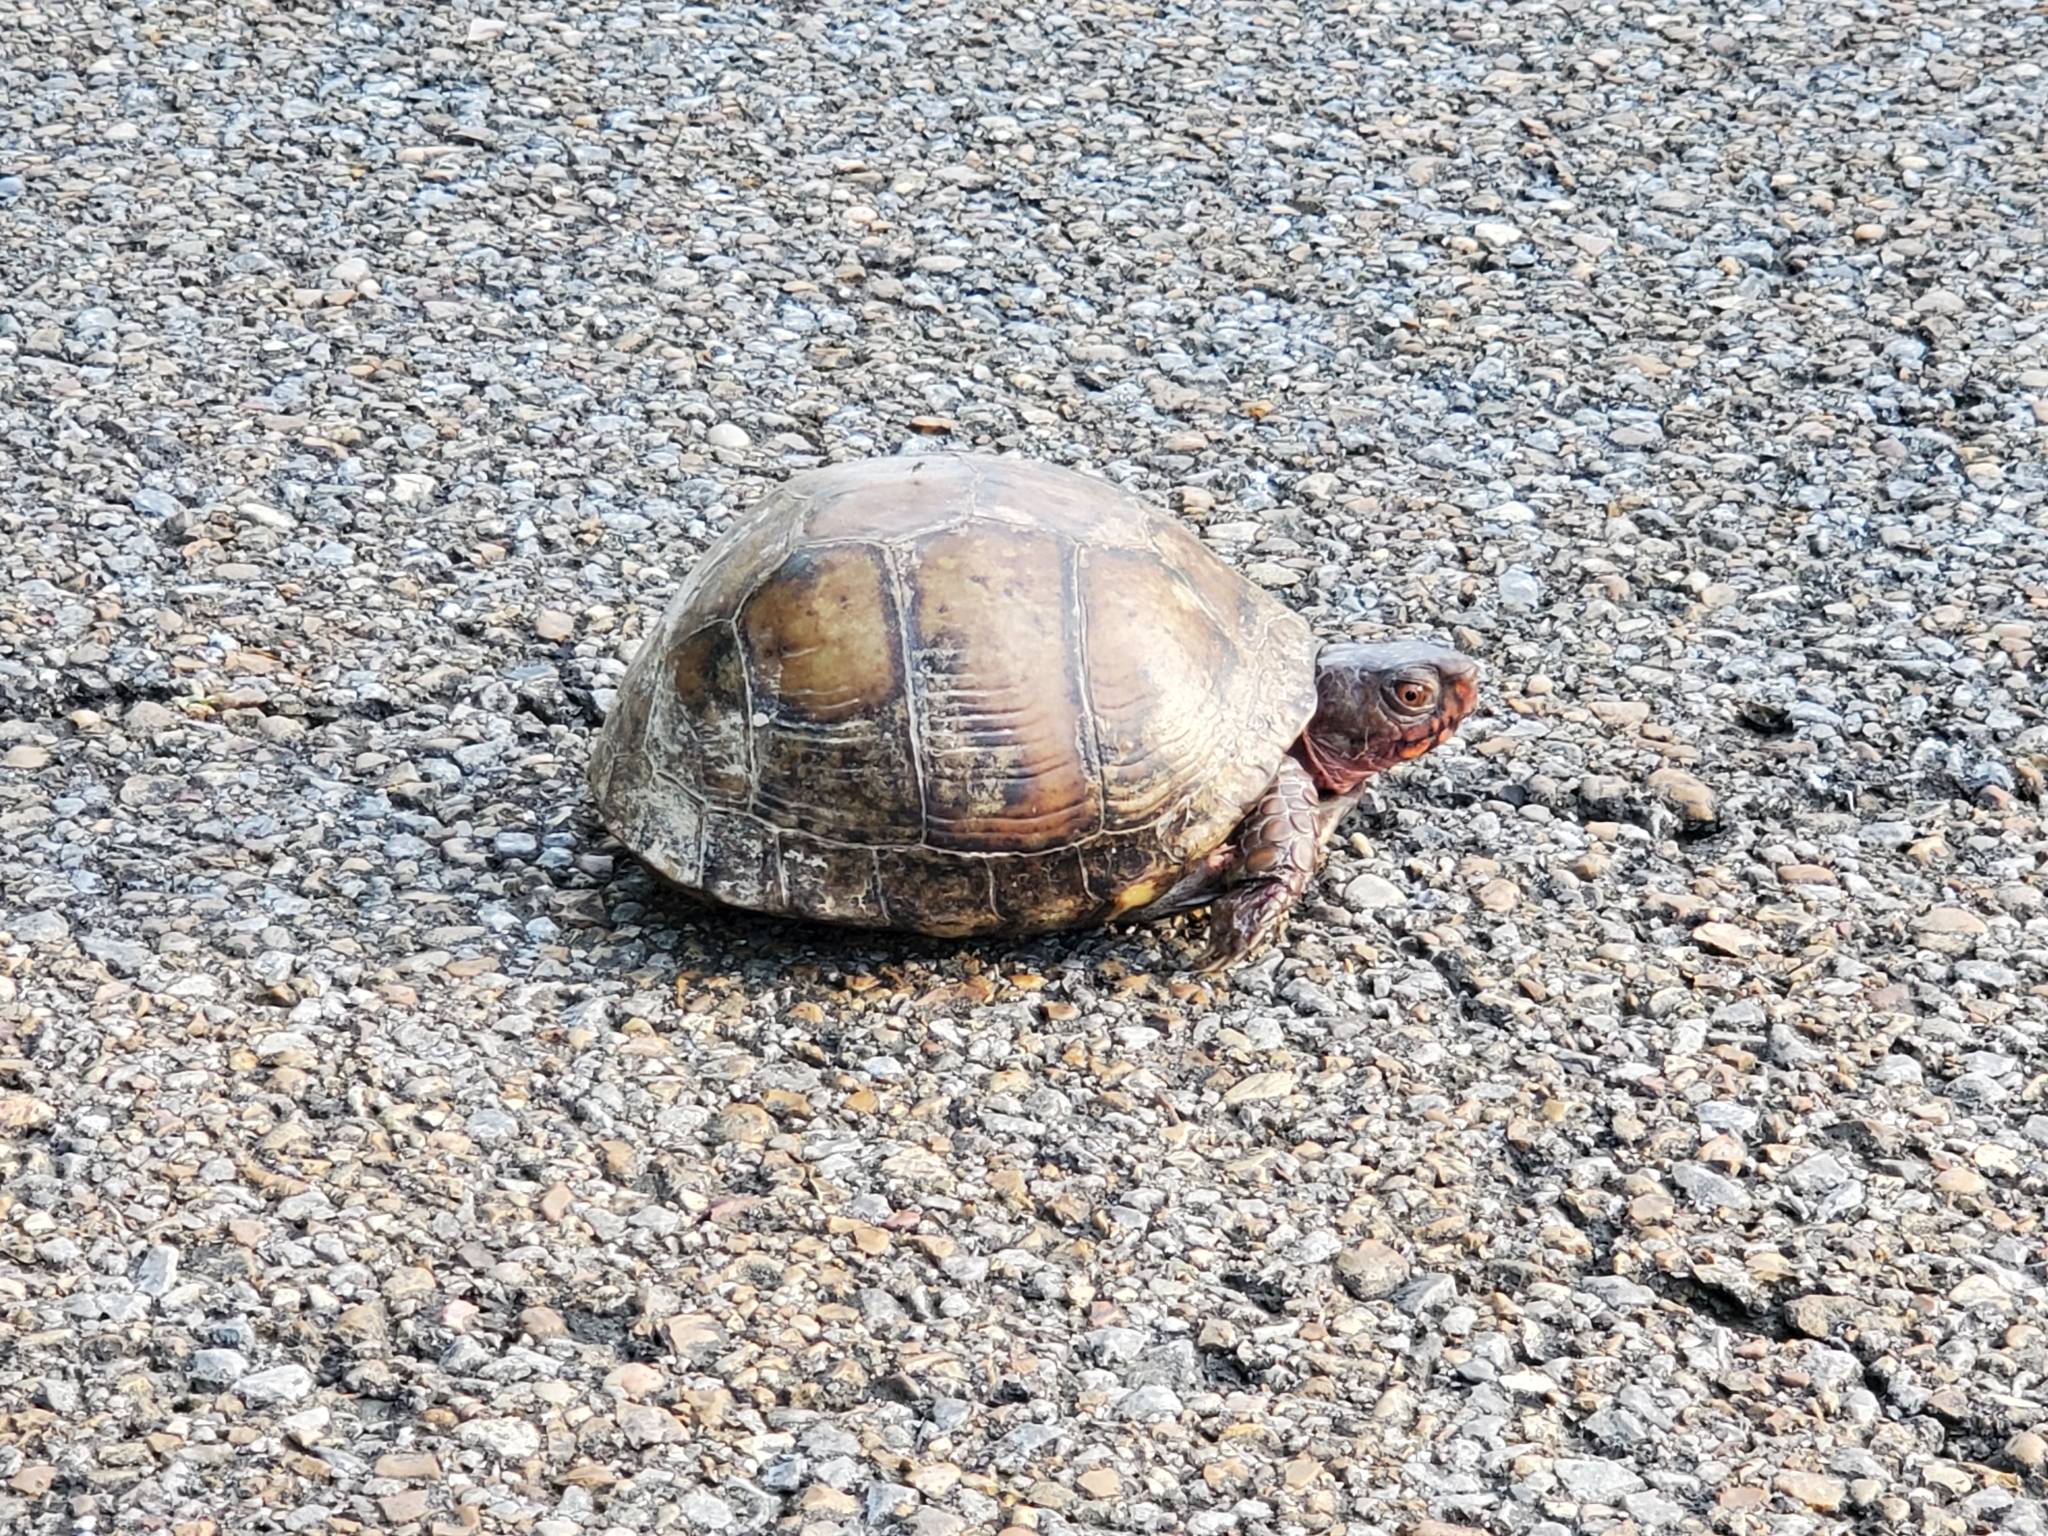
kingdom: Animalia
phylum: Chordata
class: Testudines
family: Emydidae
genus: Terrapene
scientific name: Terrapene carolina
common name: Common box turtle
